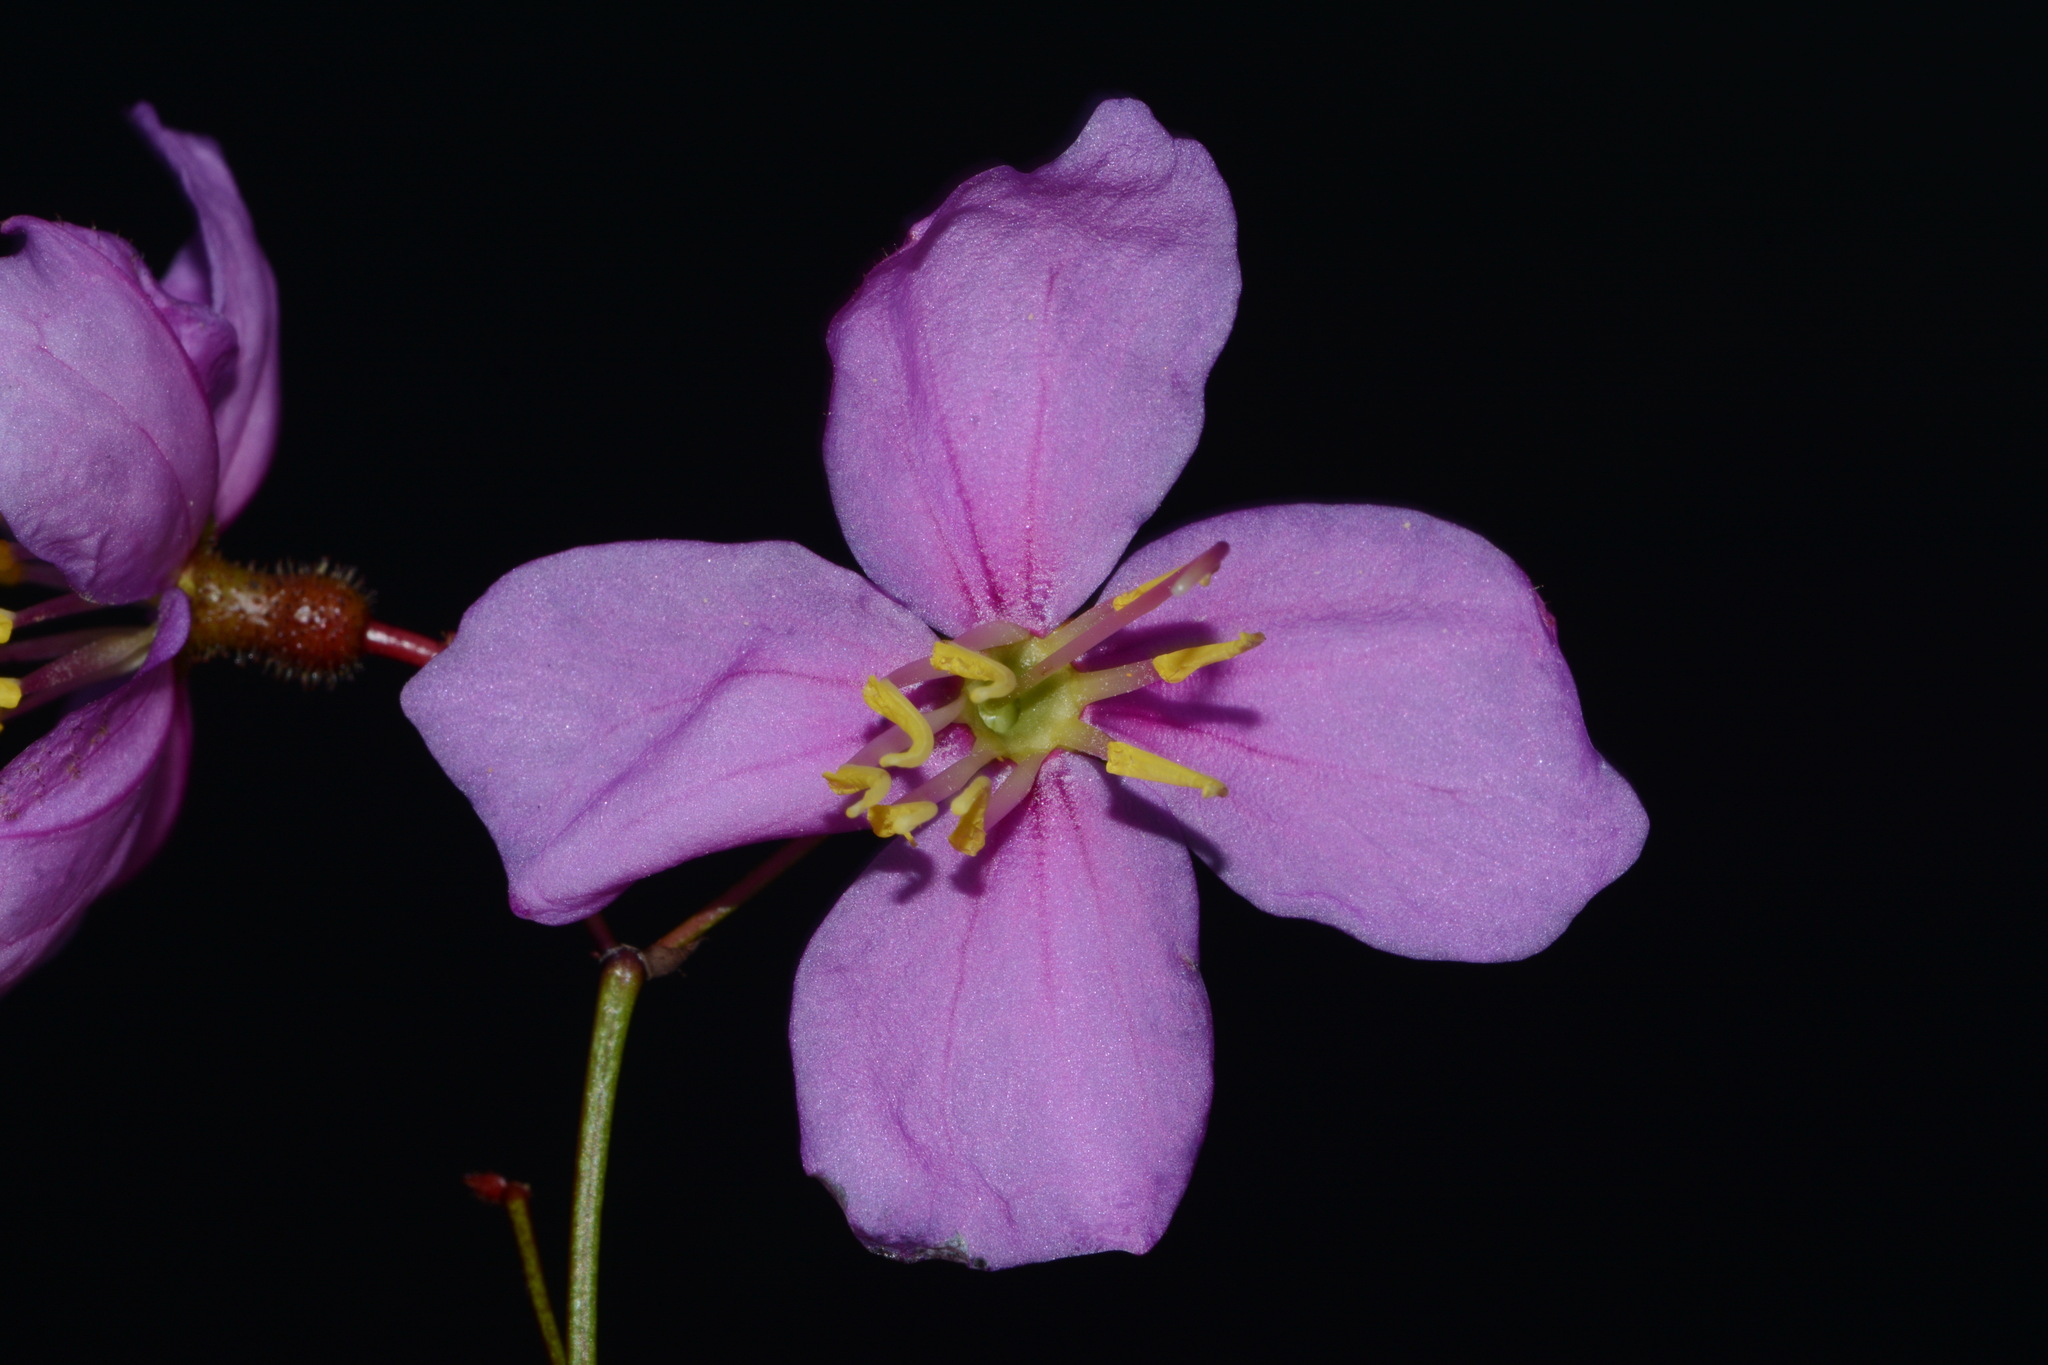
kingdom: Plantae
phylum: Tracheophyta
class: Magnoliopsida
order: Myrtales
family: Melastomataceae
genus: Rhexia
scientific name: Rhexia alifanus
